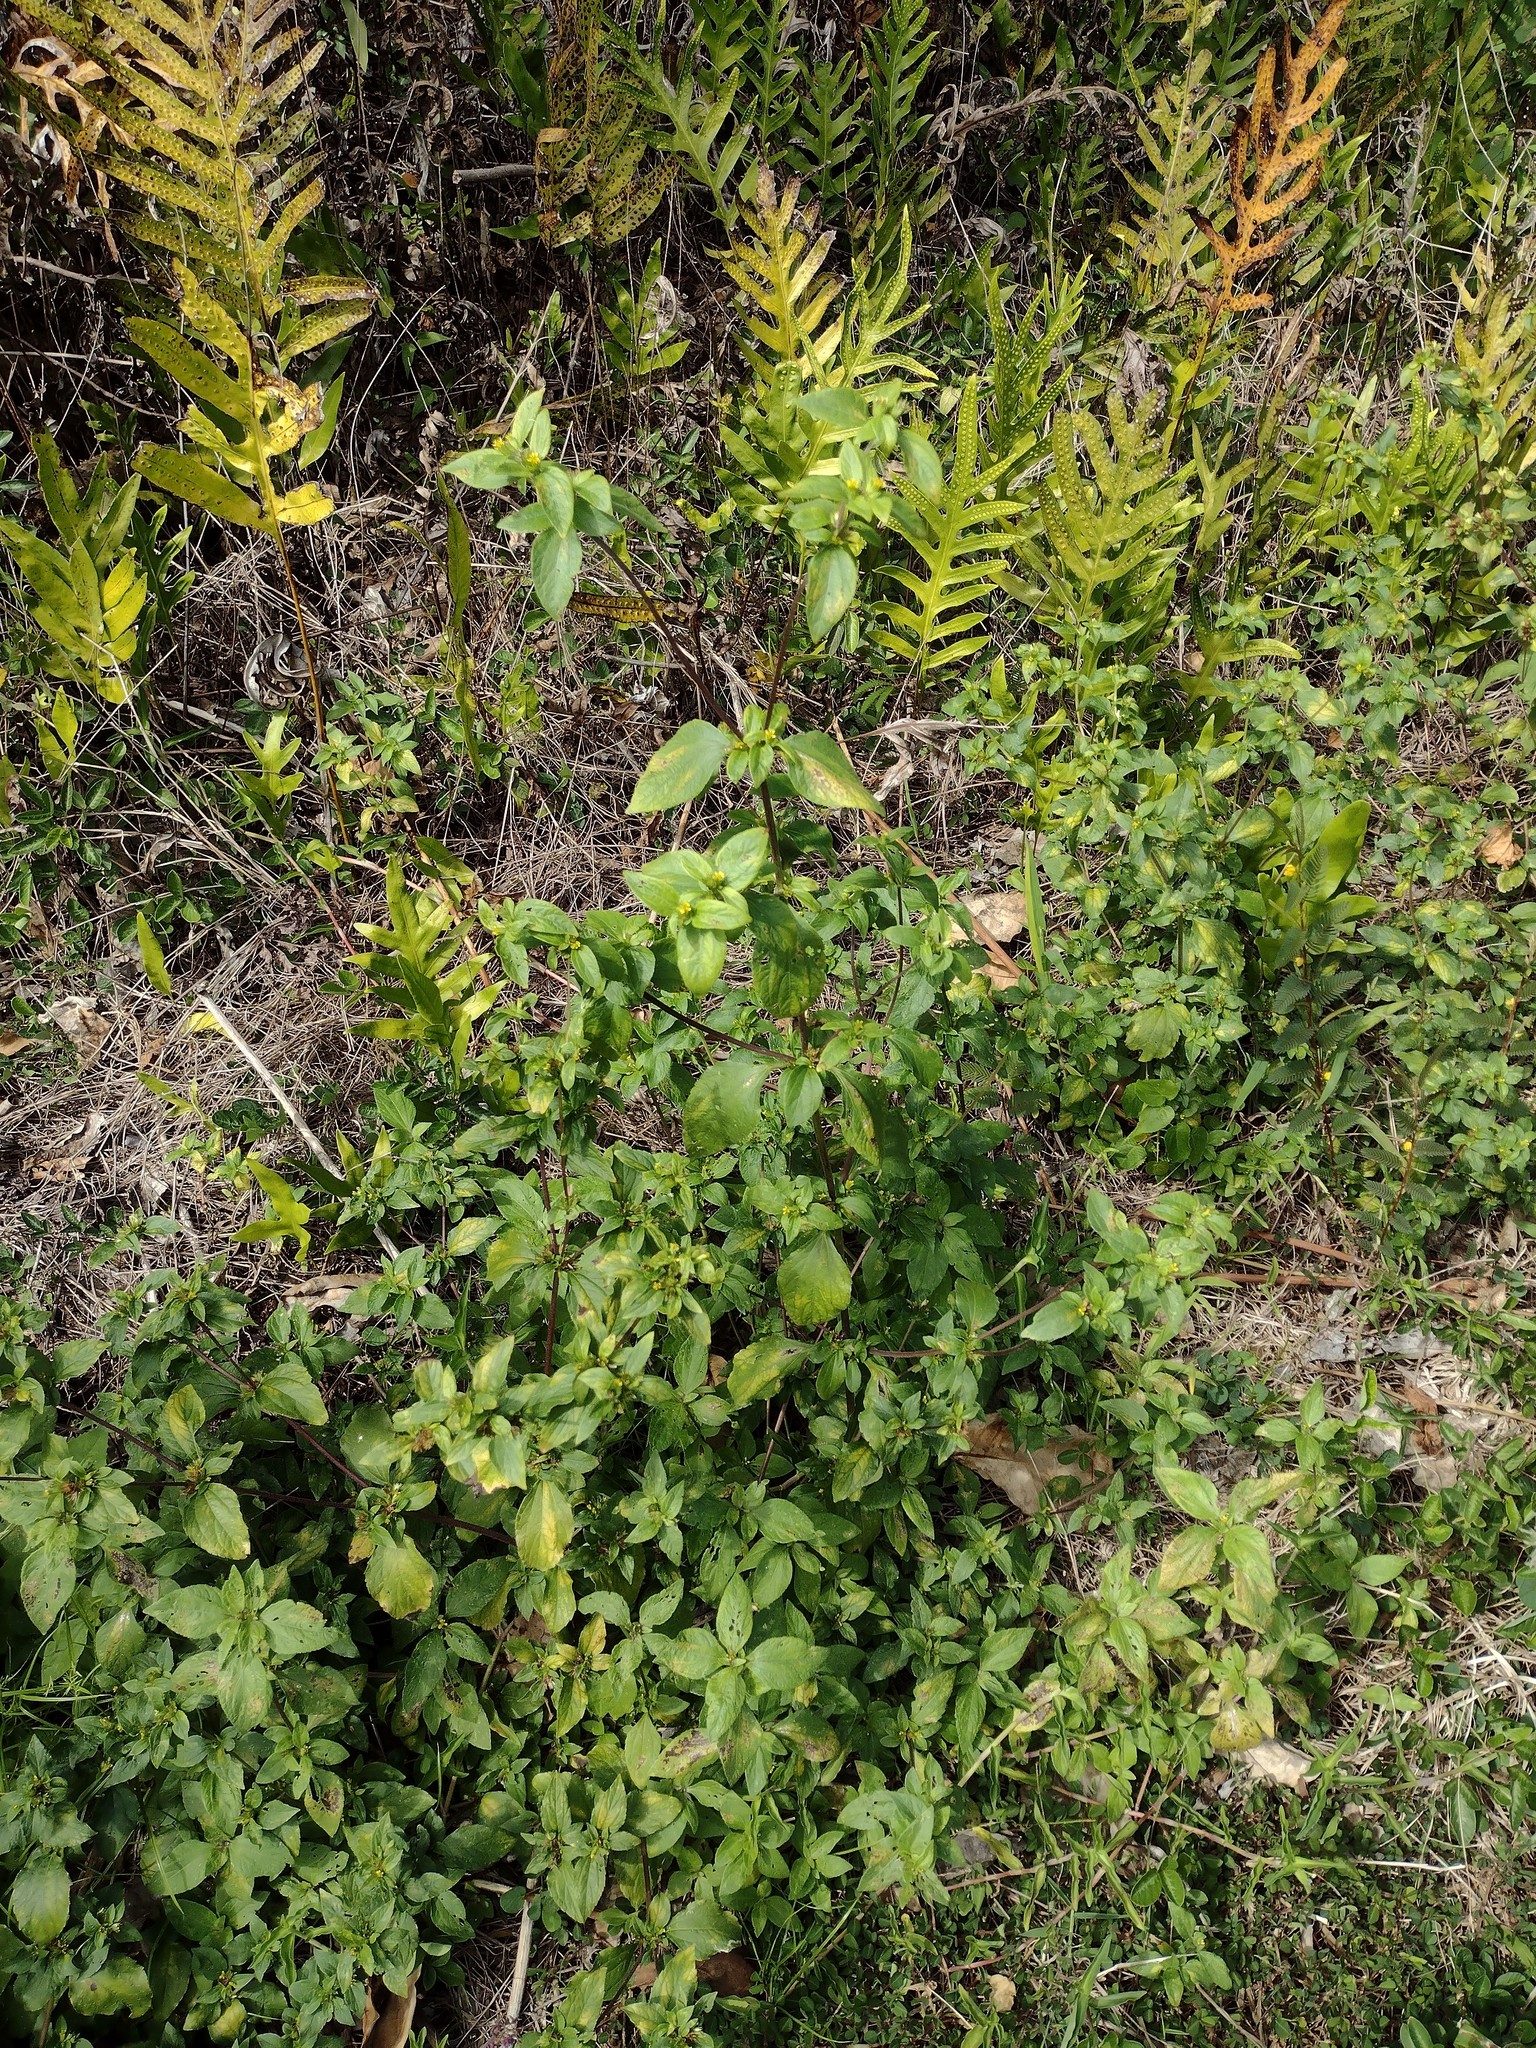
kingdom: Plantae
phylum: Tracheophyta
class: Polypodiopsida
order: Polypodiales
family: Polypodiaceae
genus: Microsorum
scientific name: Microsorum grossum
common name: Musk fern
